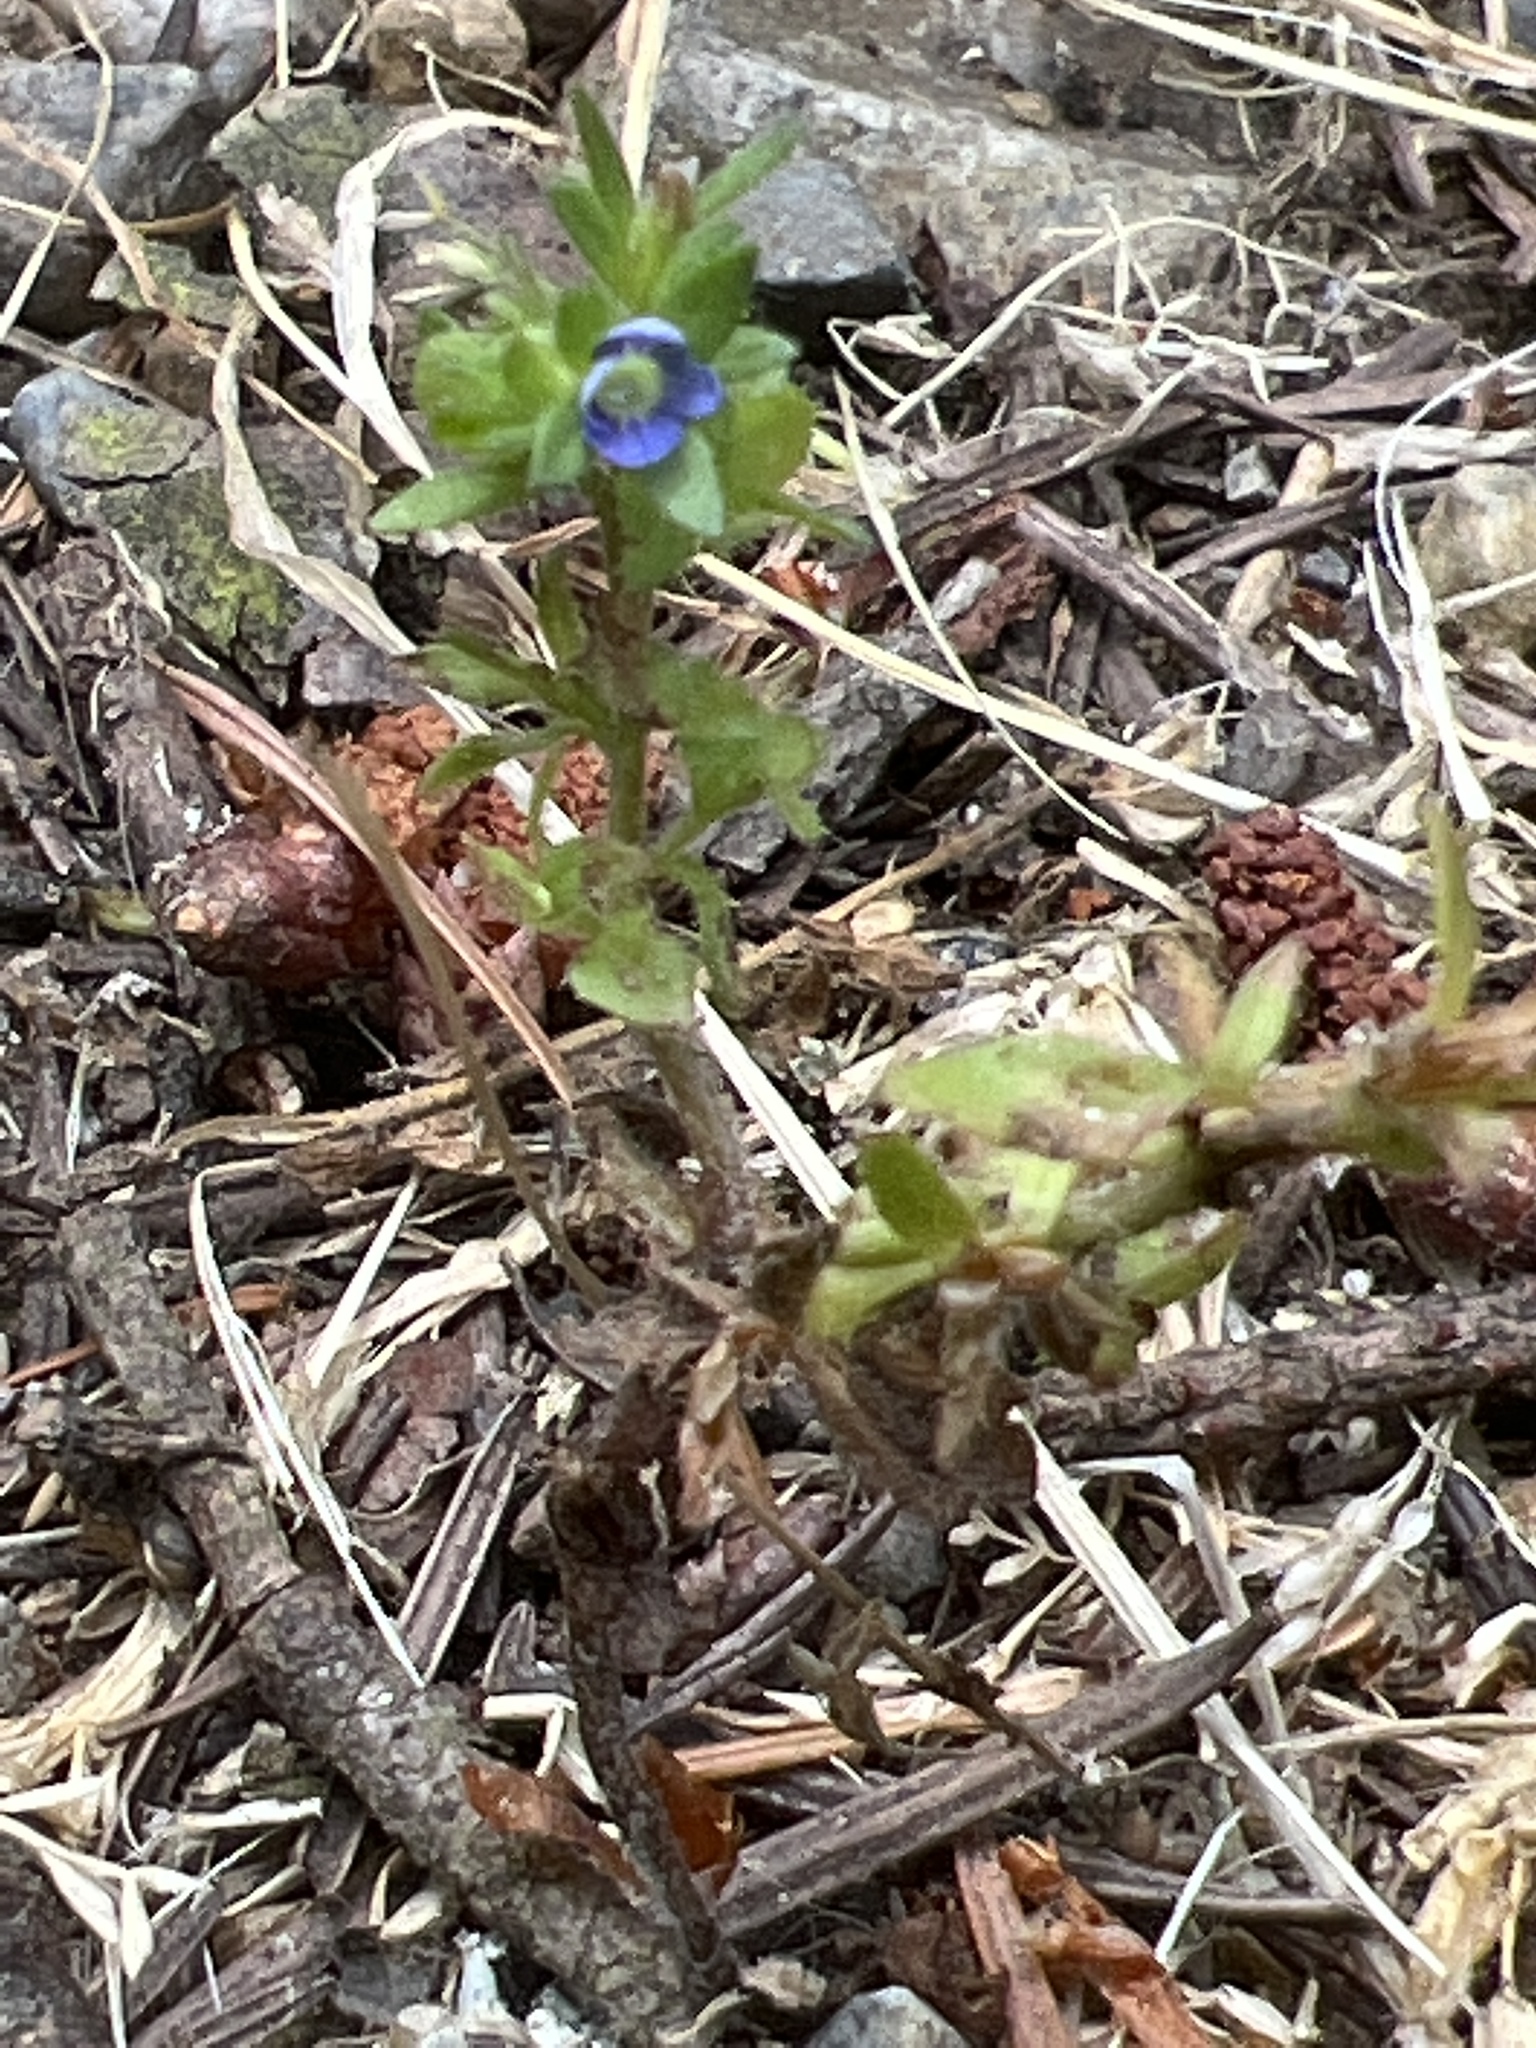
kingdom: Plantae
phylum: Tracheophyta
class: Magnoliopsida
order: Lamiales
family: Plantaginaceae
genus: Veronica
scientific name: Veronica arvensis
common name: Corn speedwell
